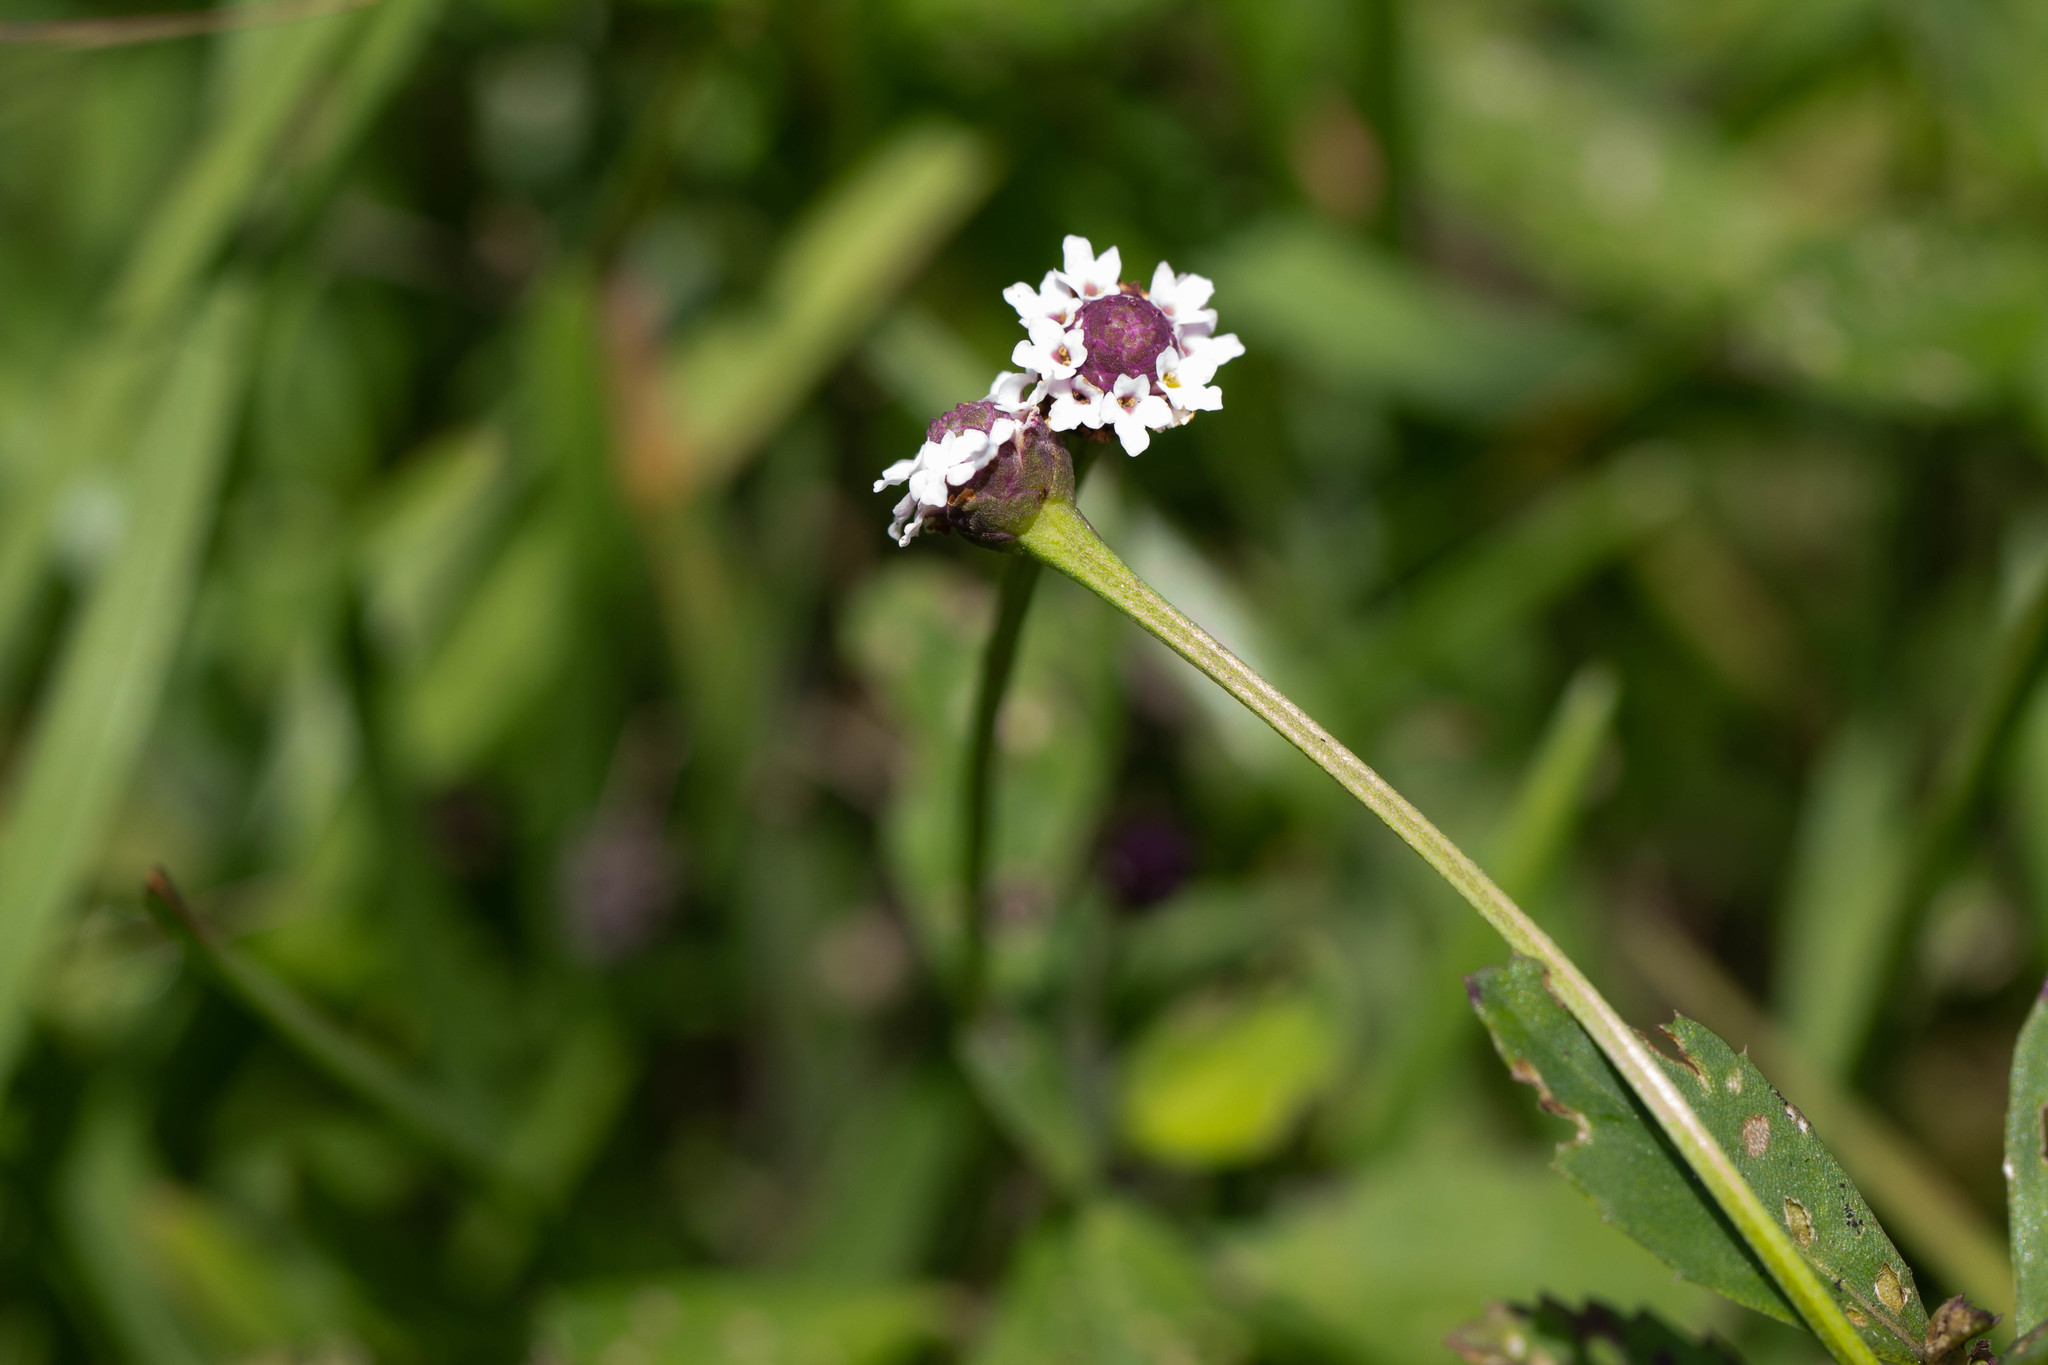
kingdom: Plantae
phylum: Tracheophyta
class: Magnoliopsida
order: Lamiales
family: Verbenaceae
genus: Phyla
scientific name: Phyla nodiflora
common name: Frogfruit
